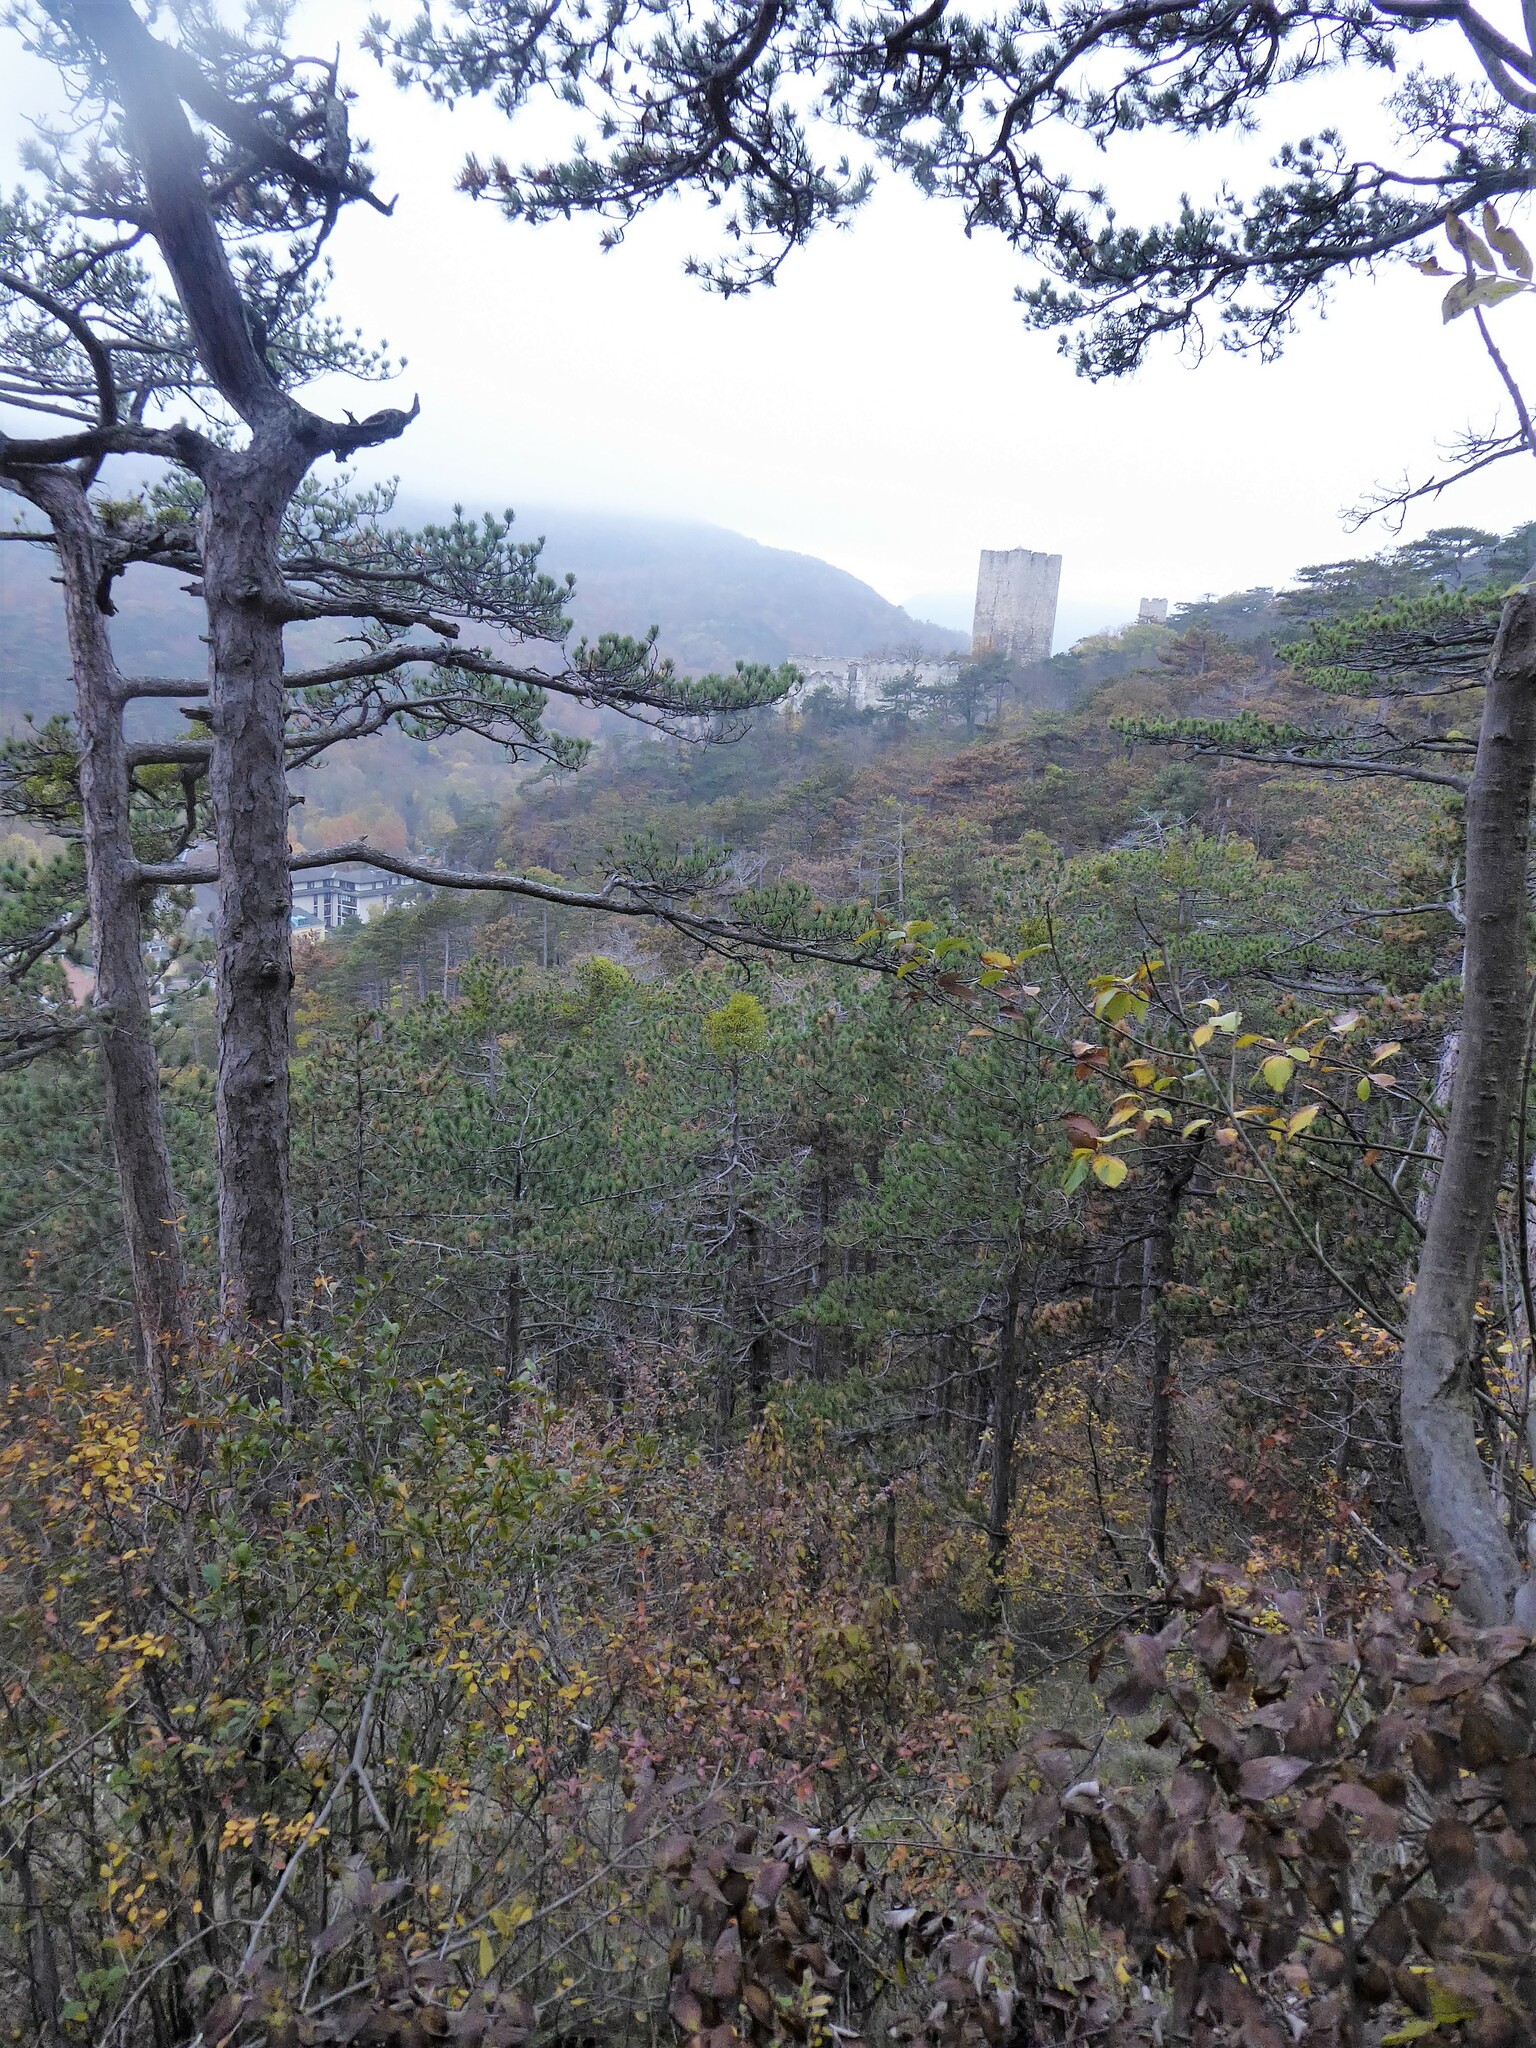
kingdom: Plantae
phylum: Tracheophyta
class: Magnoliopsida
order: Santalales
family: Viscaceae
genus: Viscum
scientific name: Viscum laxum
